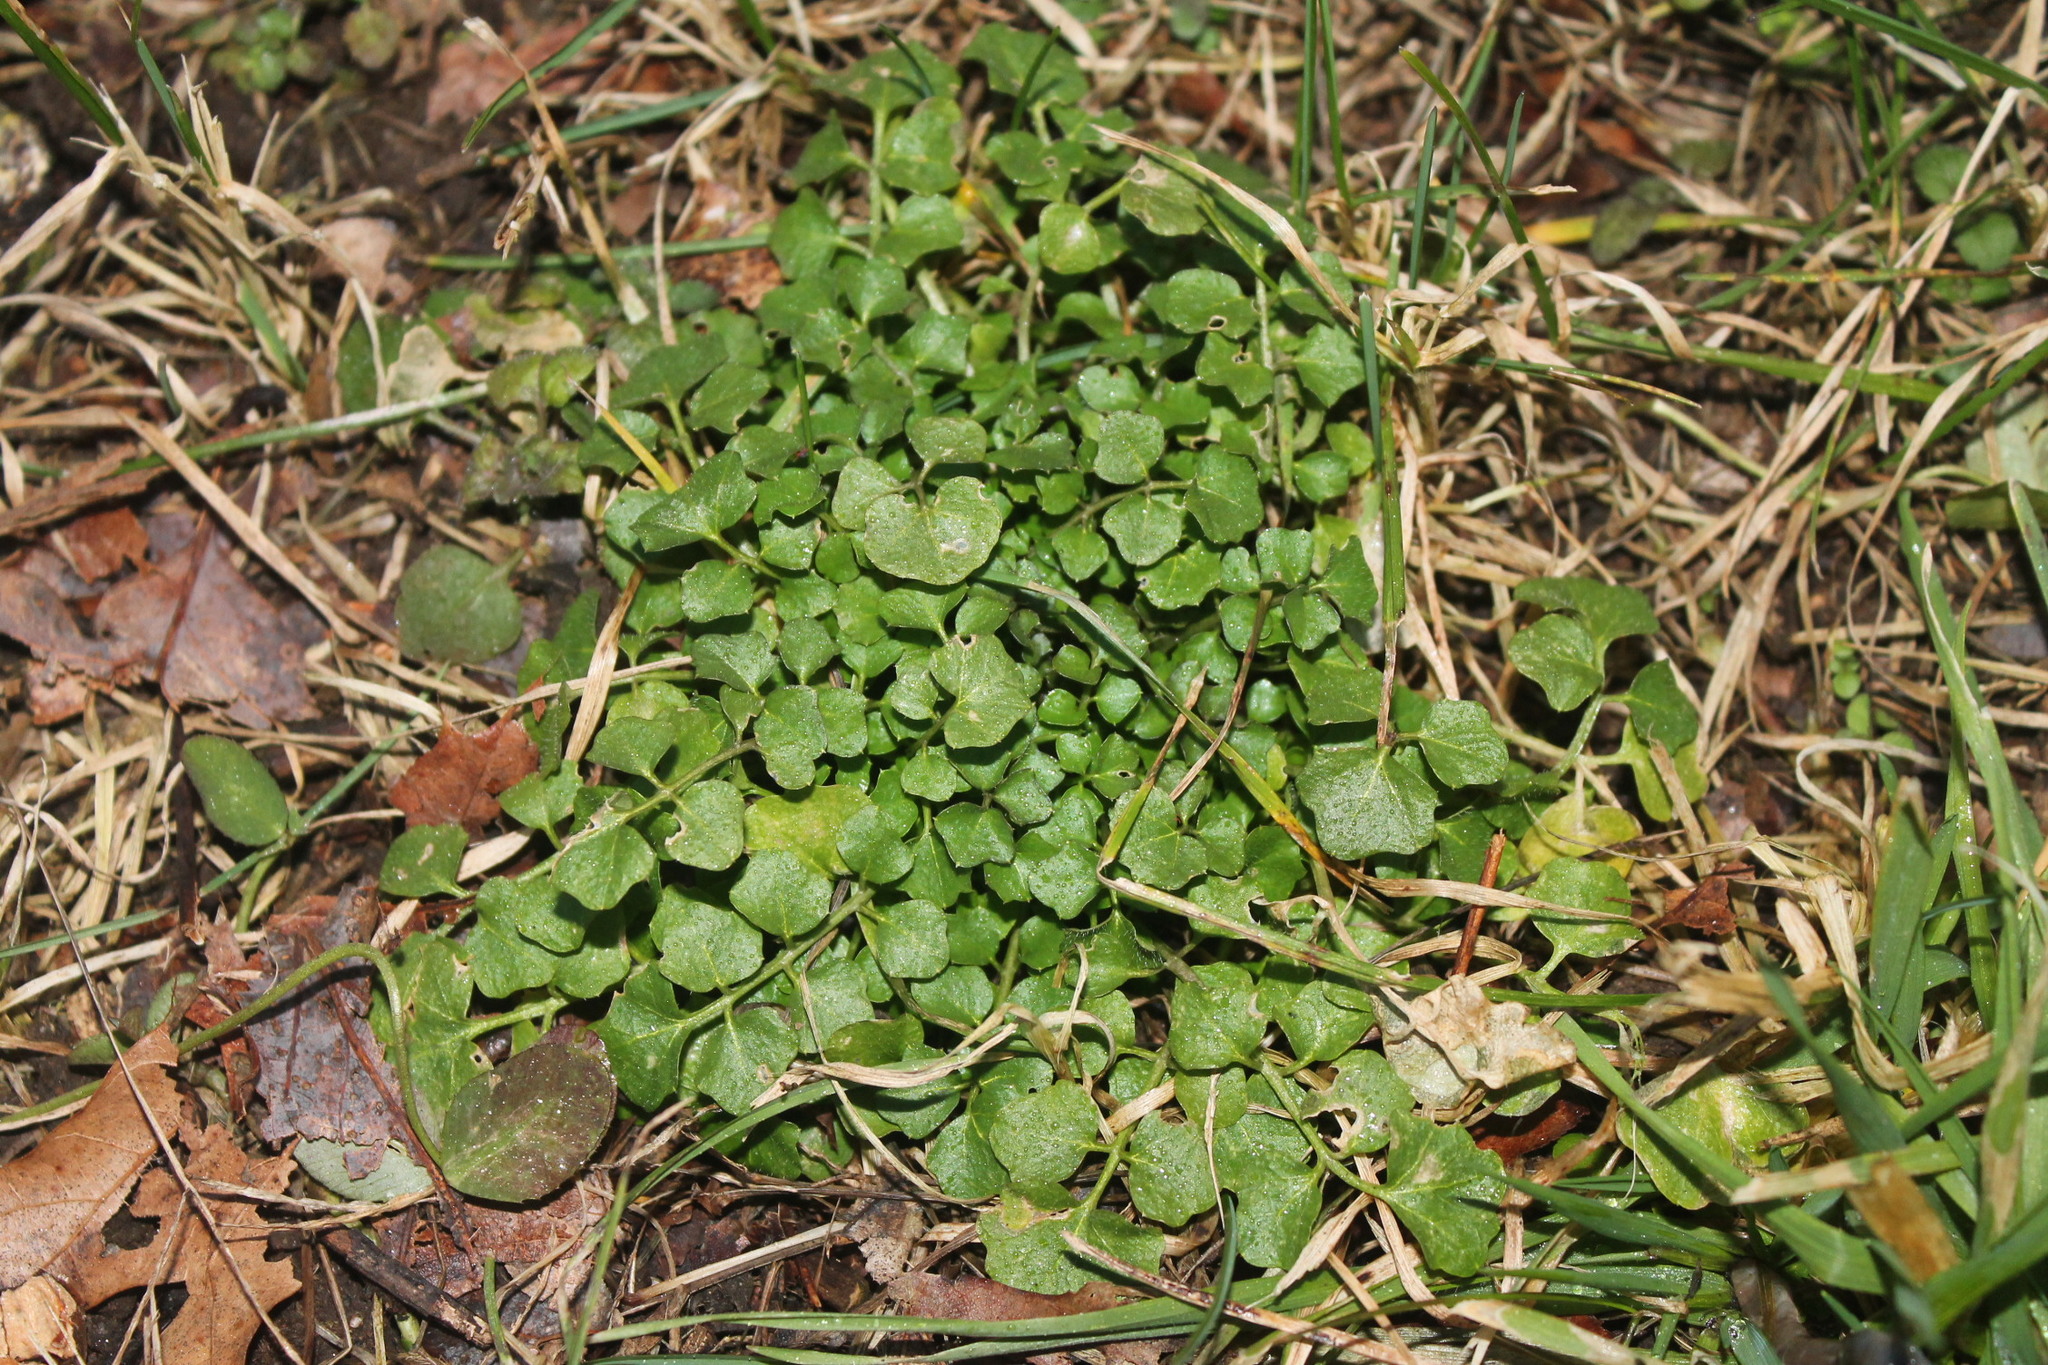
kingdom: Plantae
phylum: Tracheophyta
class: Magnoliopsida
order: Brassicales
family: Brassicaceae
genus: Cardamine
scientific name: Cardamine hirsuta
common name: Hairy bittercress
